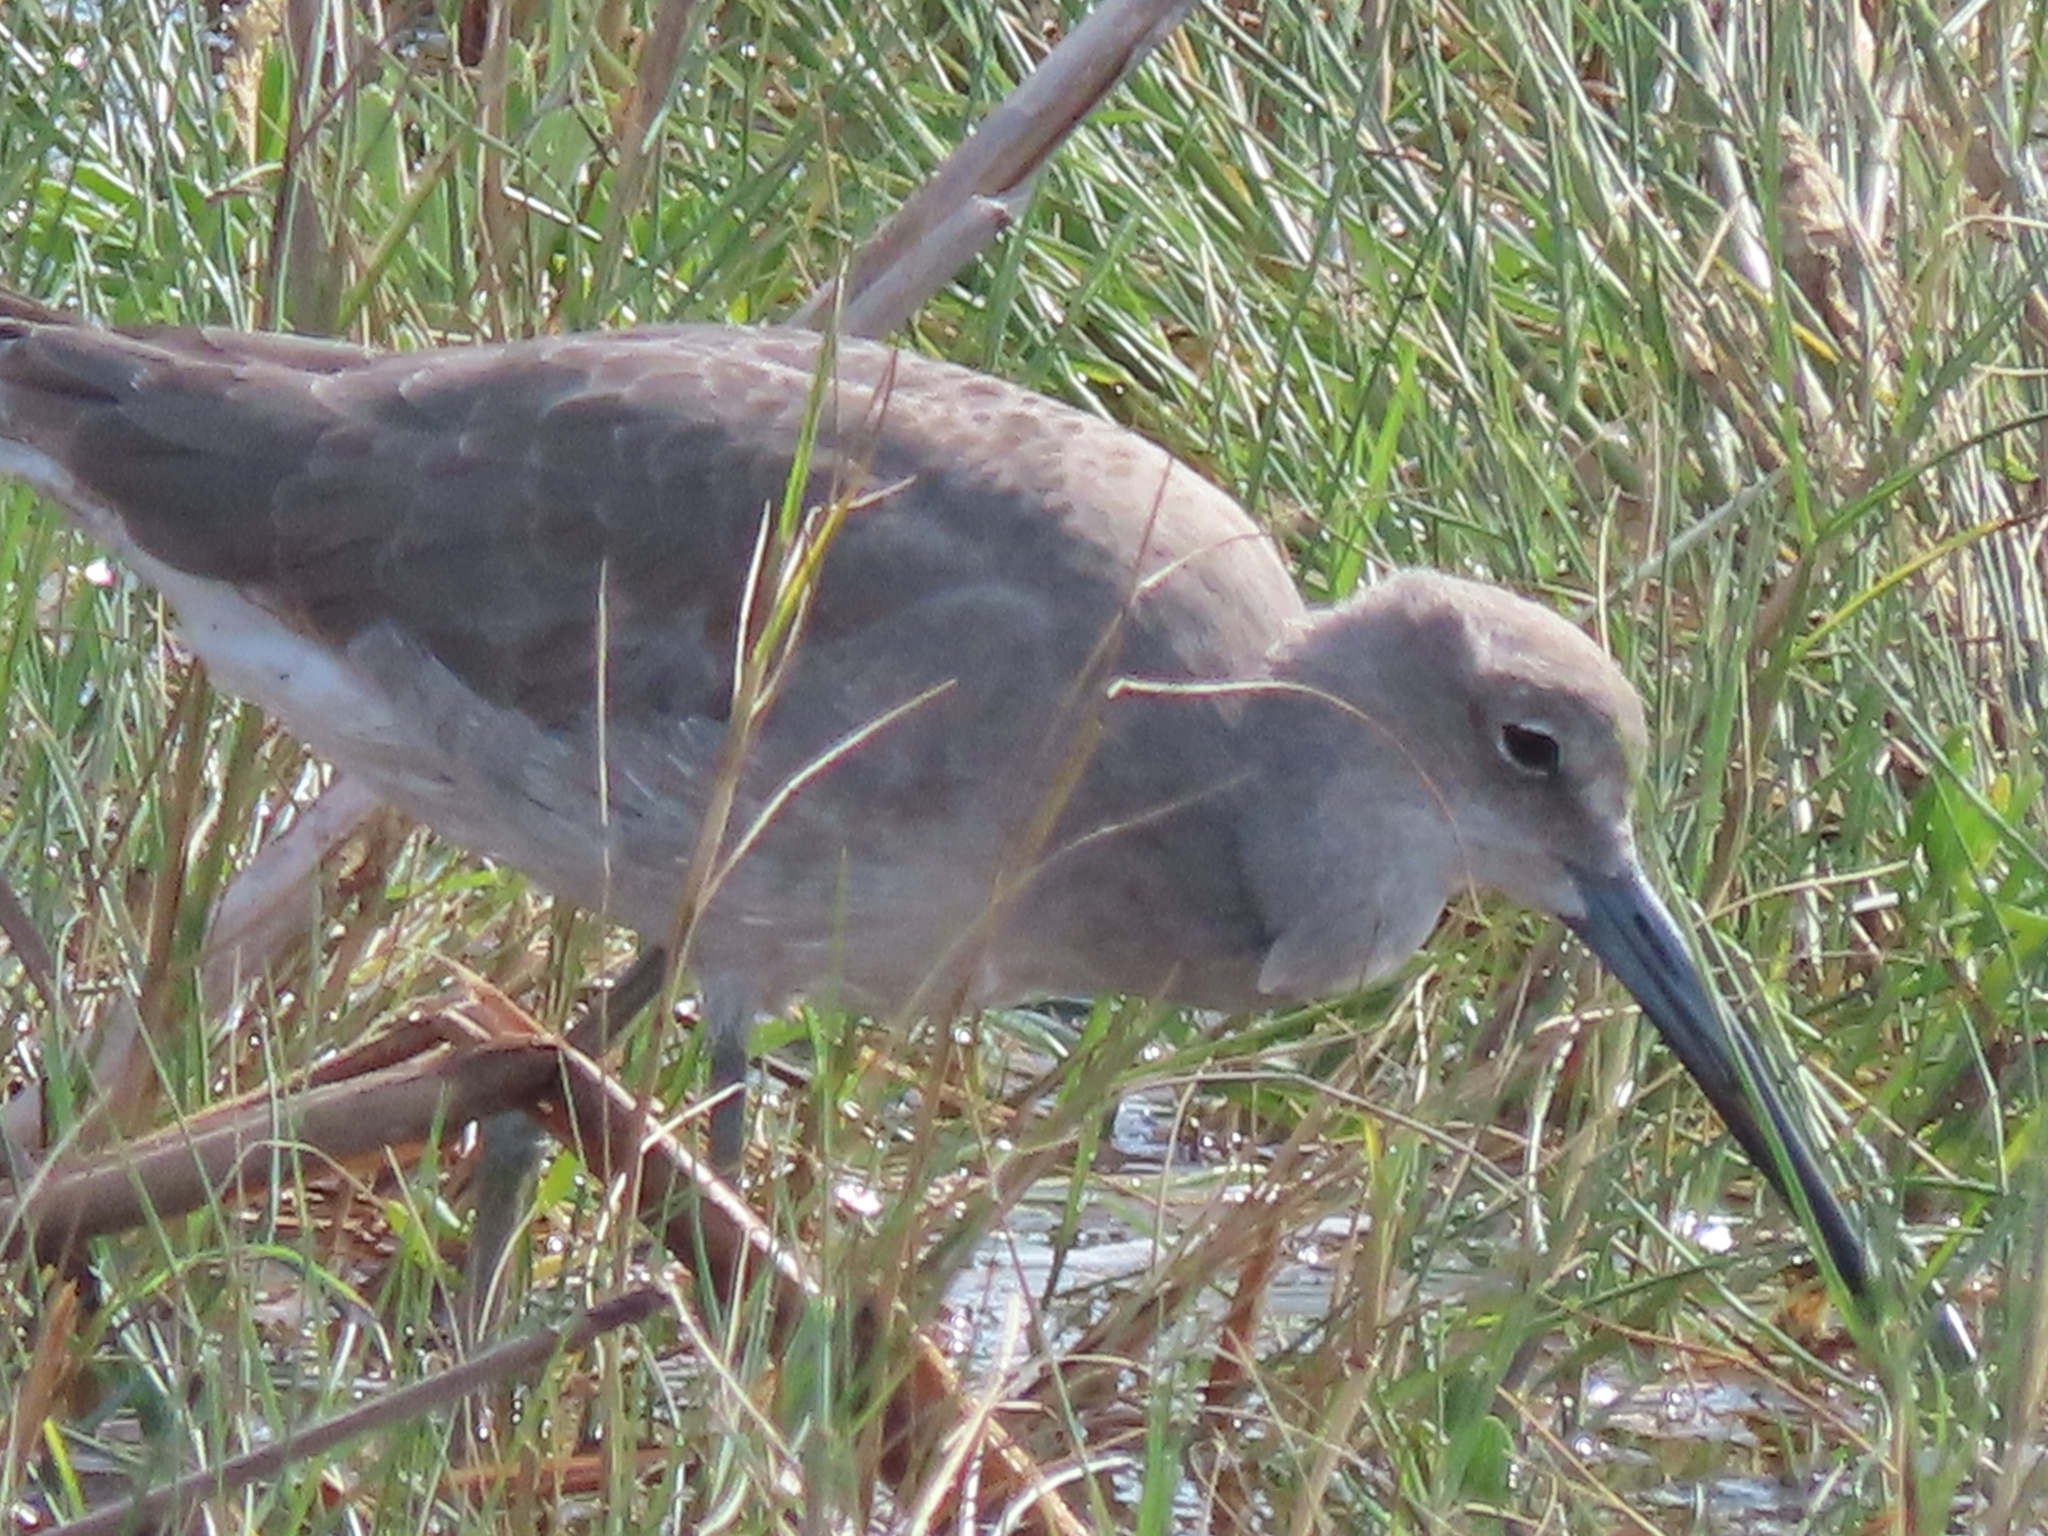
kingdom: Animalia
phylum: Chordata
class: Aves
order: Charadriiformes
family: Scolopacidae
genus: Tringa
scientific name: Tringa semipalmata
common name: Willet
